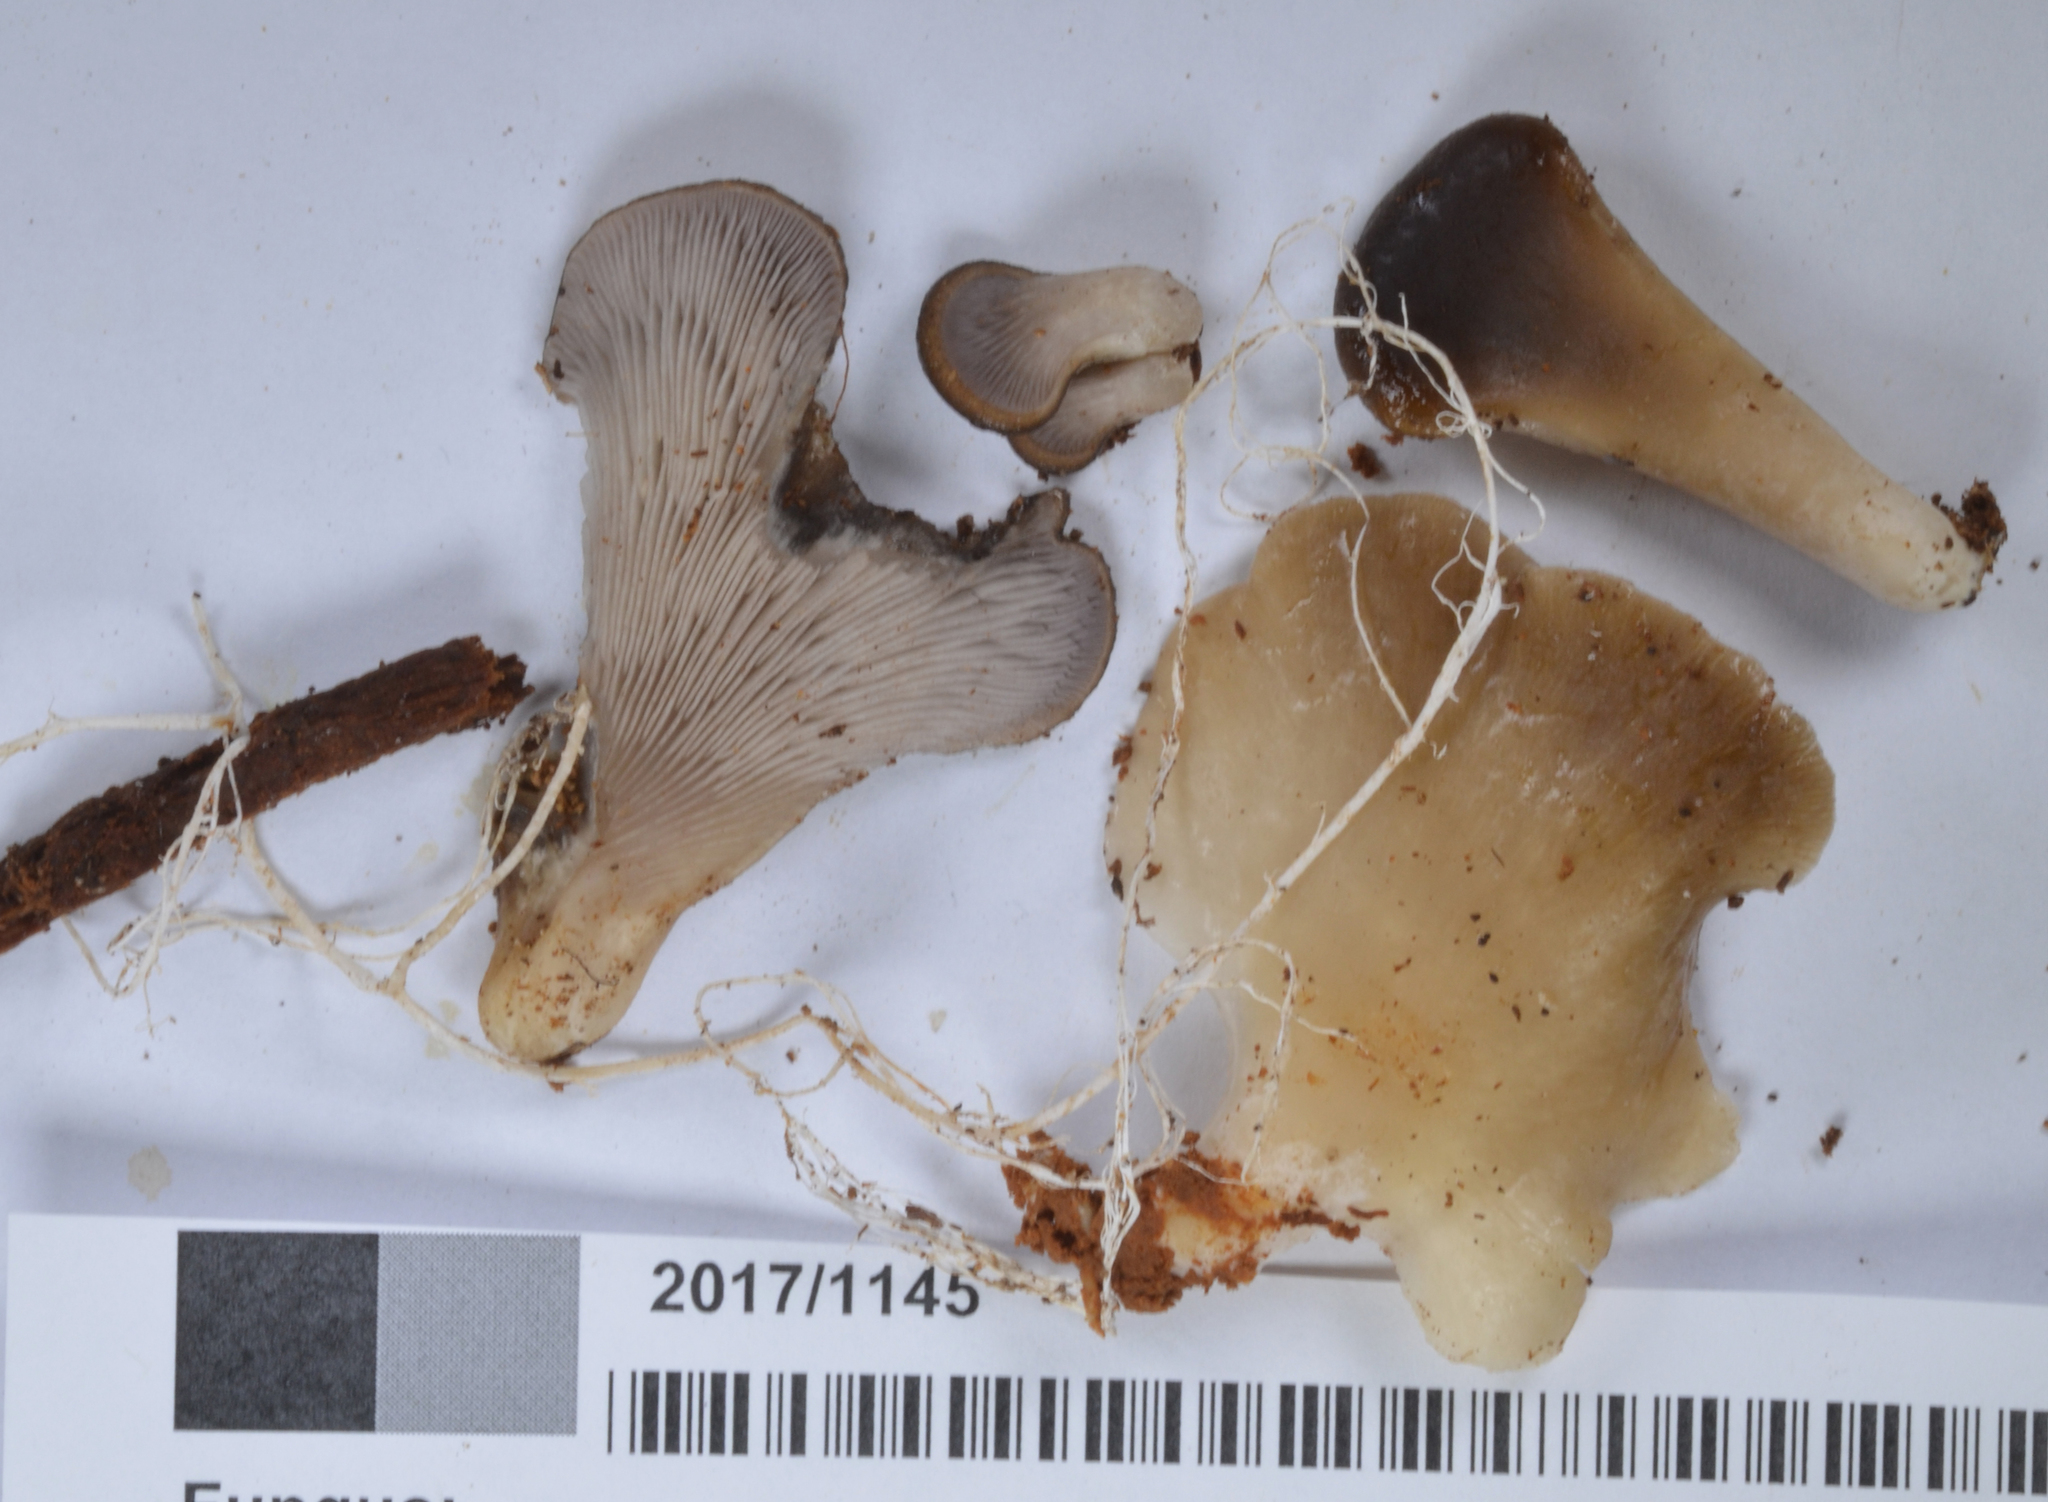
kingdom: Fungi
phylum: Basidiomycota
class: Agaricomycetes
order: Agaricales
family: Pleurotaceae
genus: Hohenbuehelia
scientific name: Hohenbuehelia petaloides
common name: Shoehorn oyster
